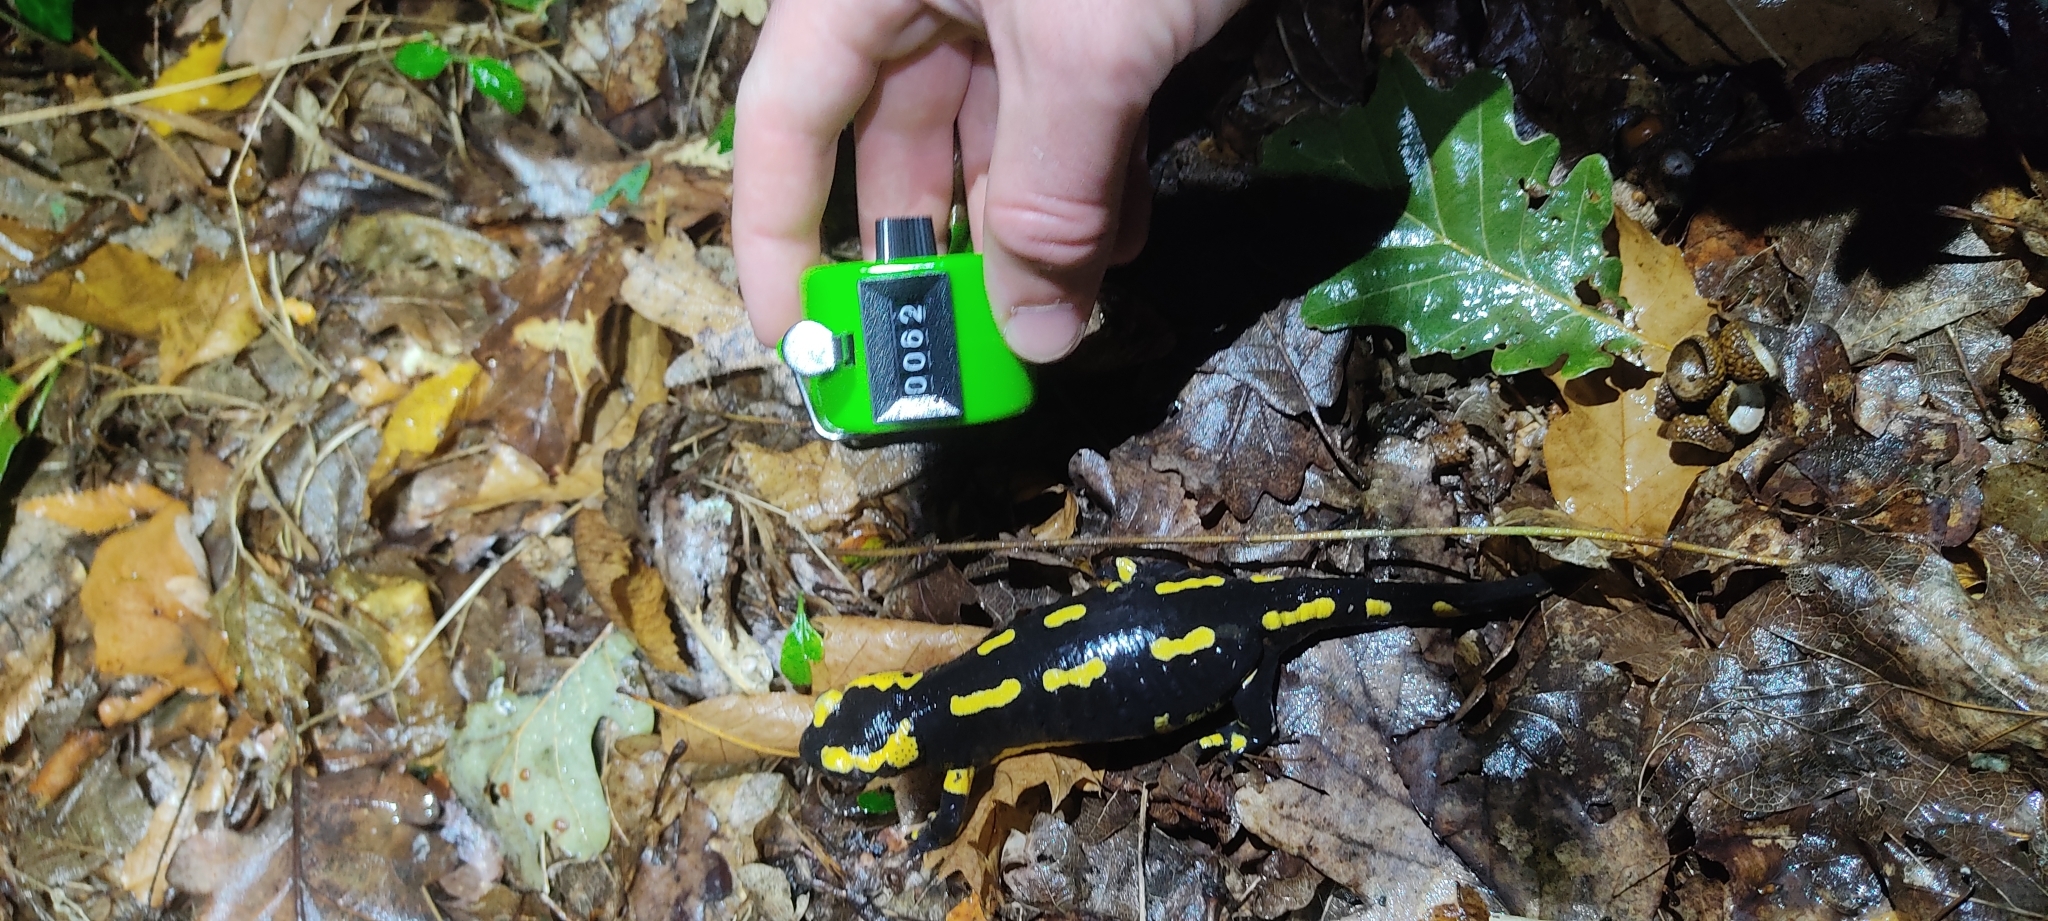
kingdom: Animalia
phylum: Chordata
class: Amphibia
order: Caudata
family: Salamandridae
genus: Salamandra
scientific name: Salamandra salamandra
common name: Fire salamander
